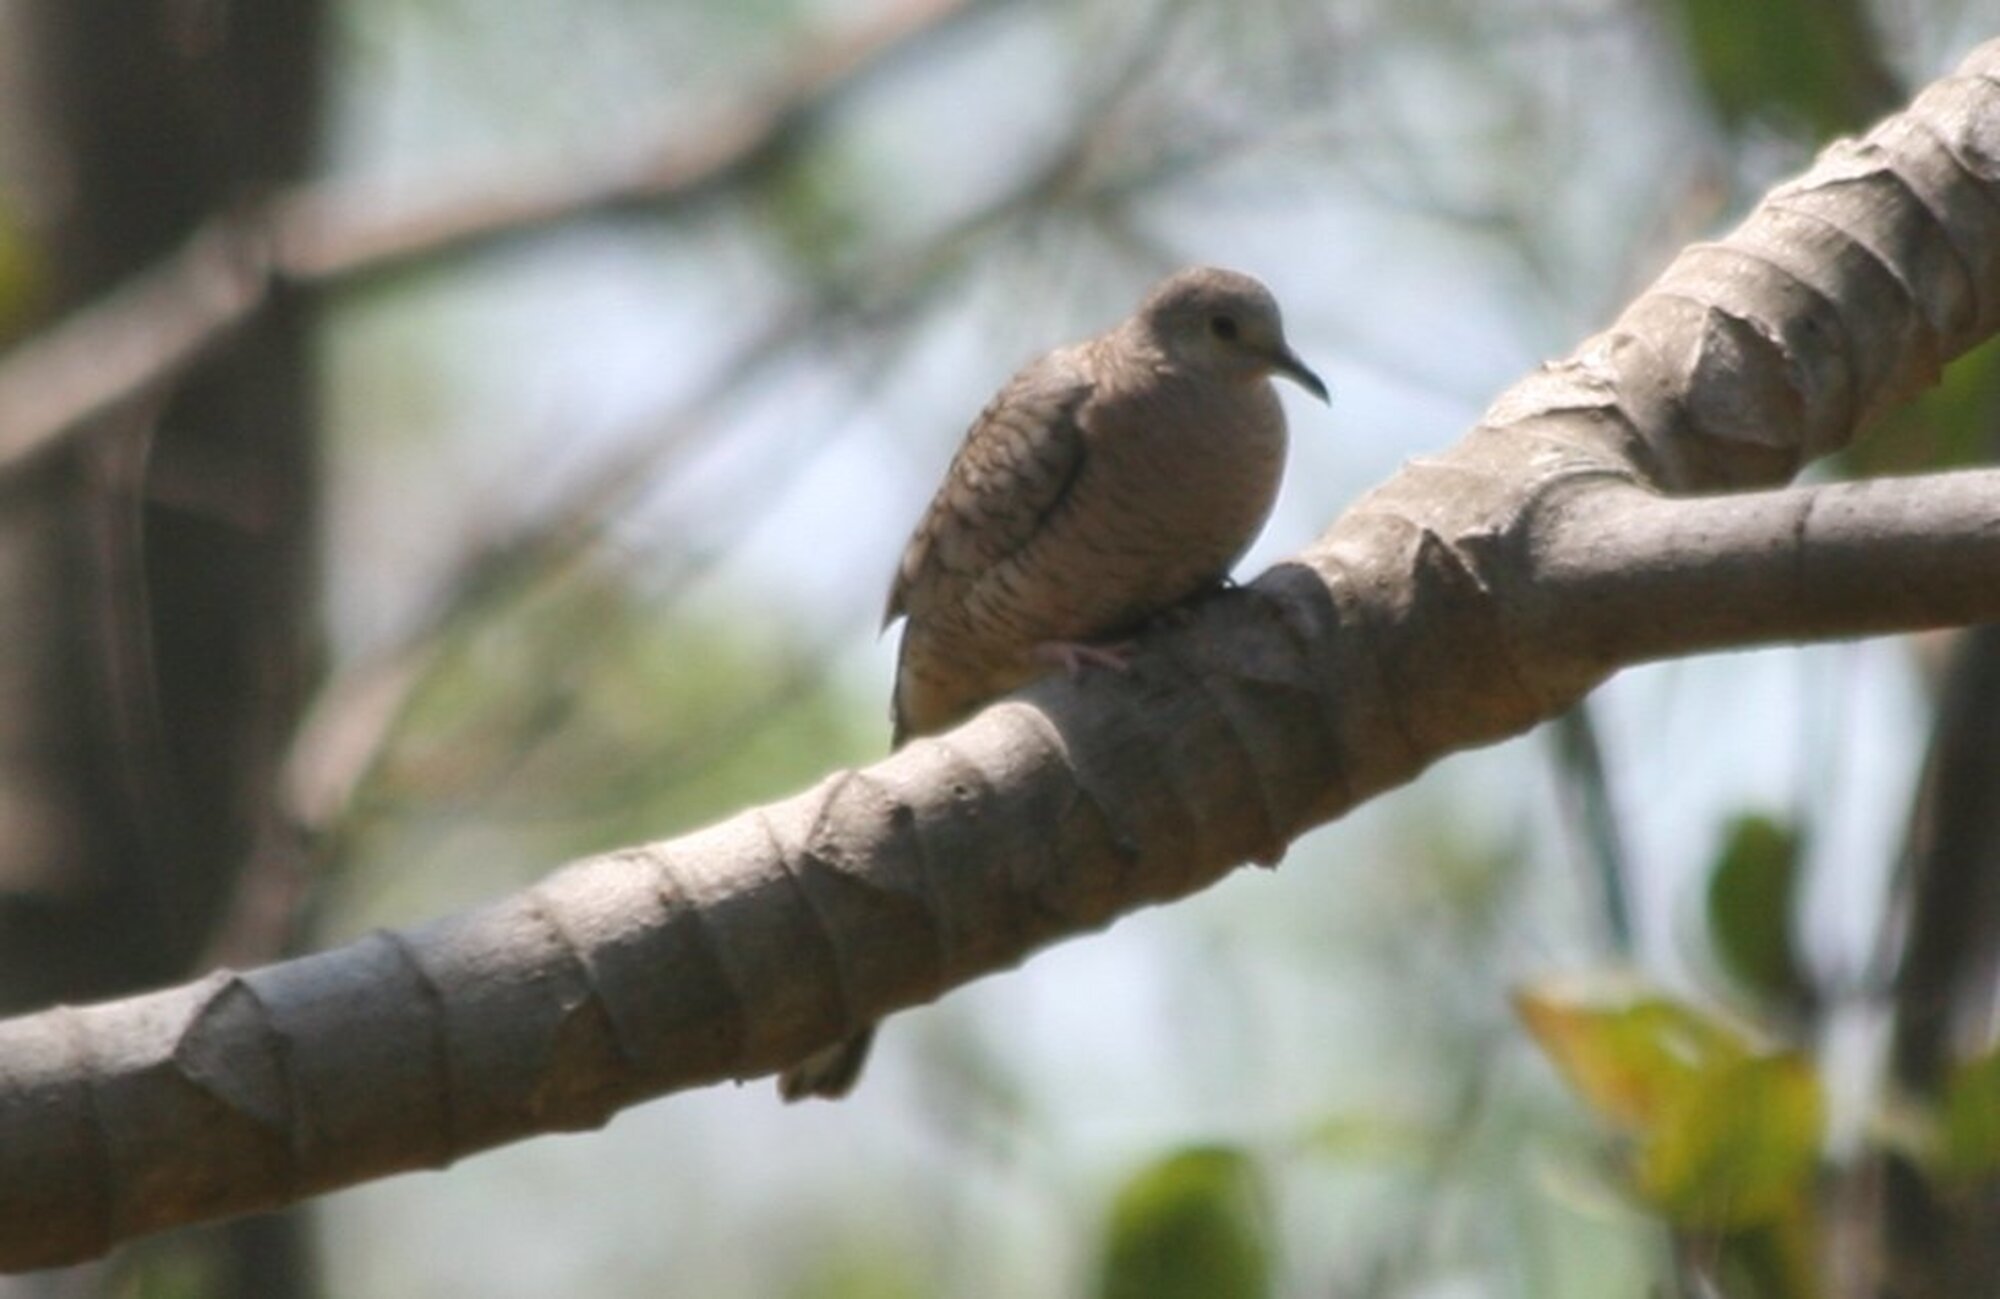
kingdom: Animalia
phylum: Chordata
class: Aves
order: Columbiformes
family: Columbidae
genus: Columbina
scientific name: Columbina inca
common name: Inca dove
